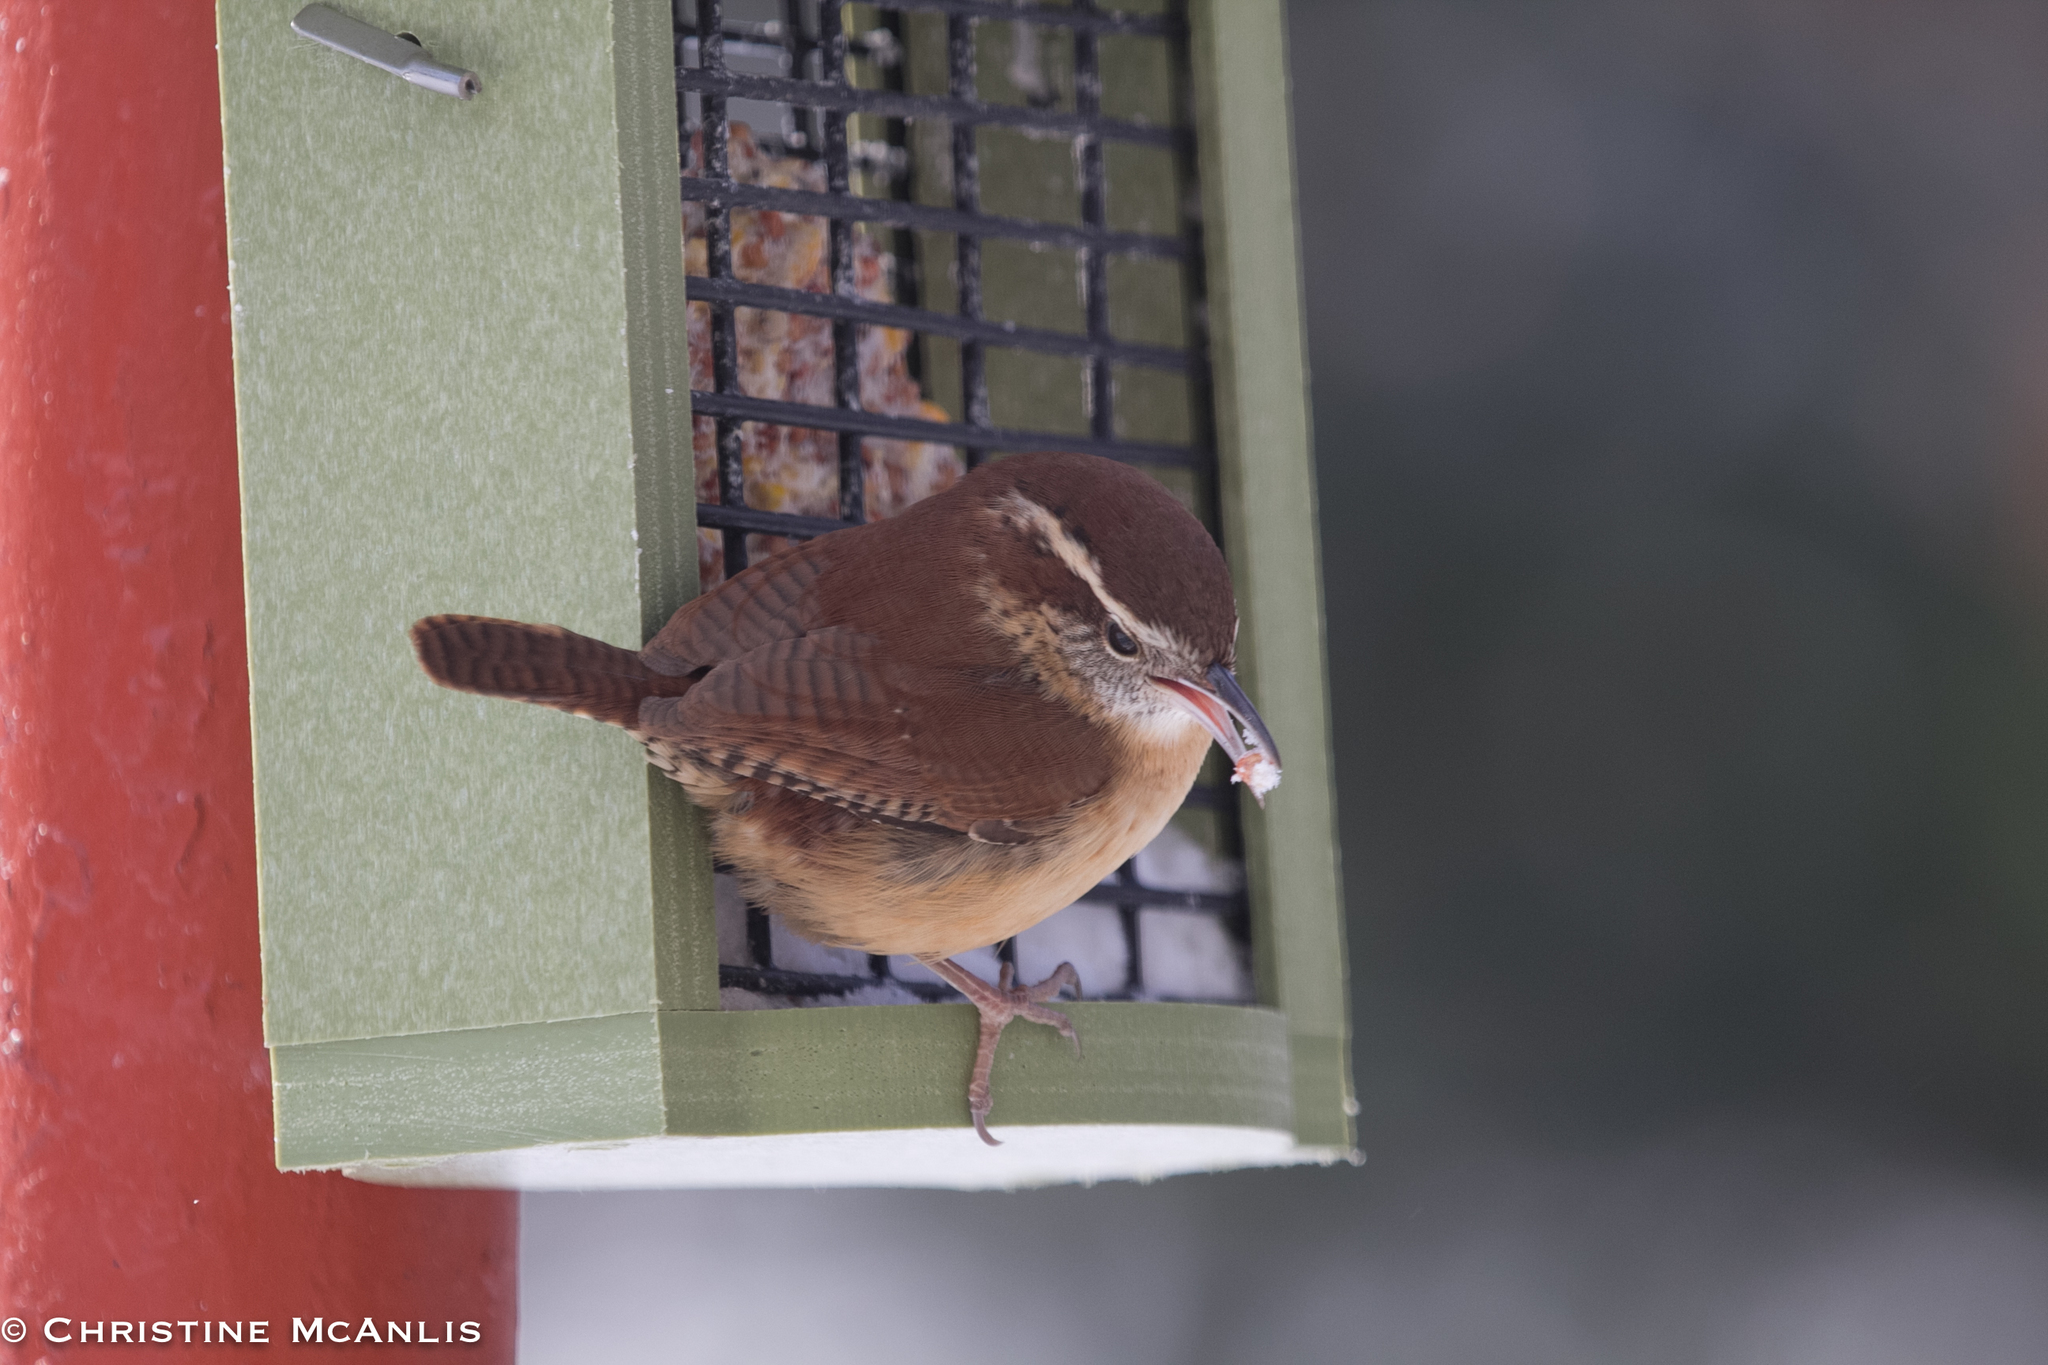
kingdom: Animalia
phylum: Chordata
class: Aves
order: Passeriformes
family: Troglodytidae
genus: Thryothorus
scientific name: Thryothorus ludovicianus
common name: Carolina wren
